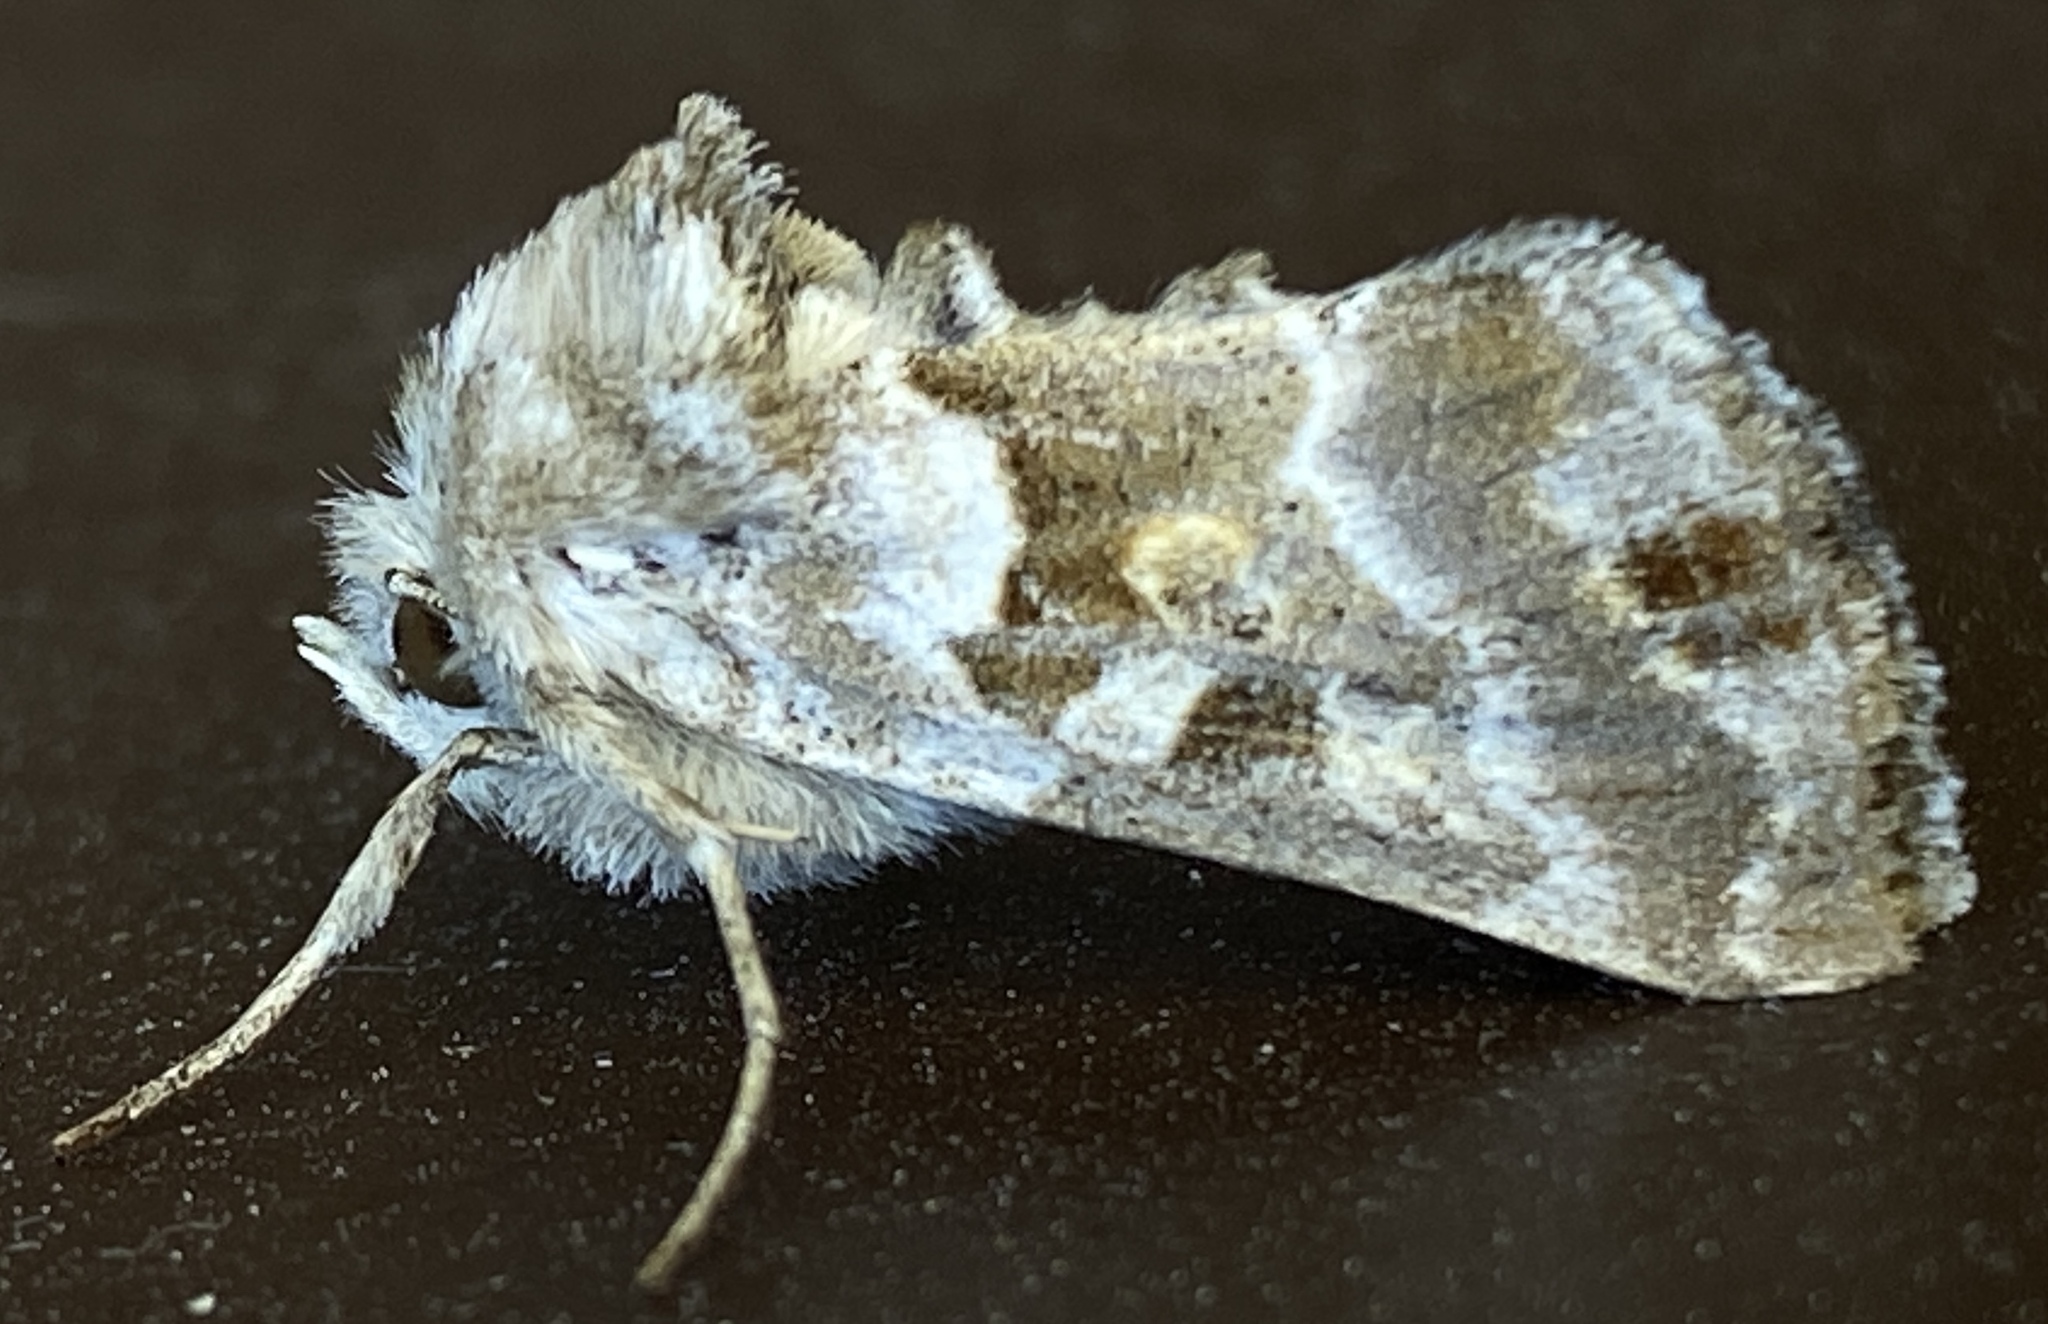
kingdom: Animalia
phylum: Arthropoda
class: Insecta
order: Lepidoptera
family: Noctuidae
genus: Euchalcia
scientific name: Euchalcia albavitta
